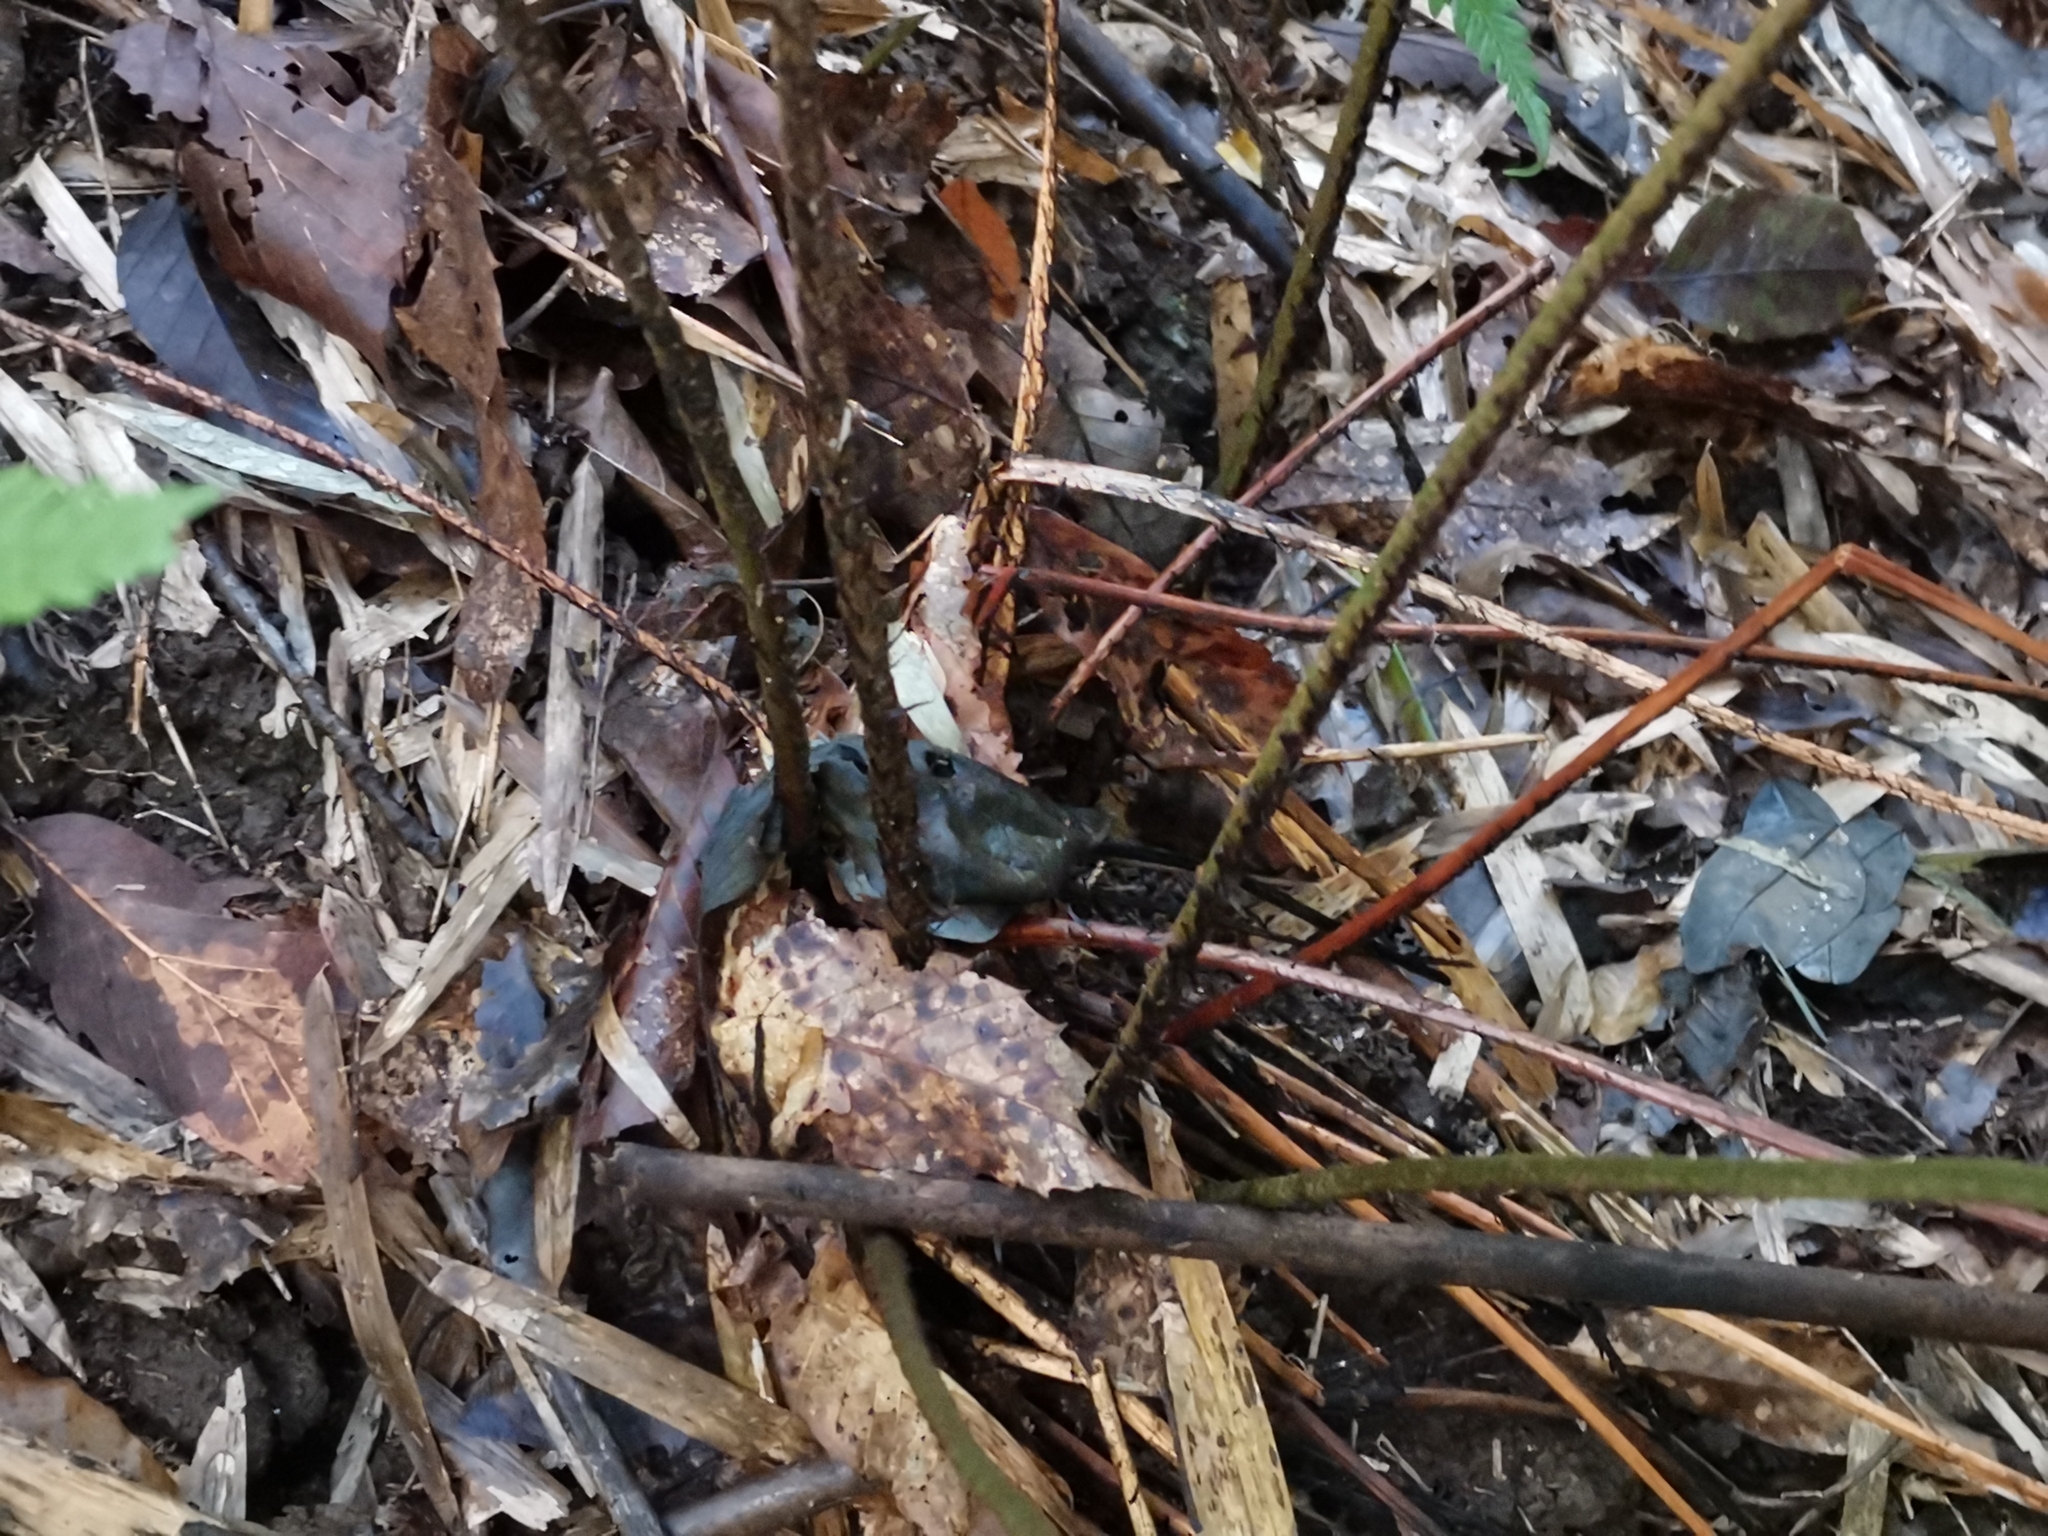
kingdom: Plantae
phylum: Tracheophyta
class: Polypodiopsida
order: Polypodiales
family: Dryopteridaceae
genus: Dryopteris
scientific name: Dryopteris nipponensis
